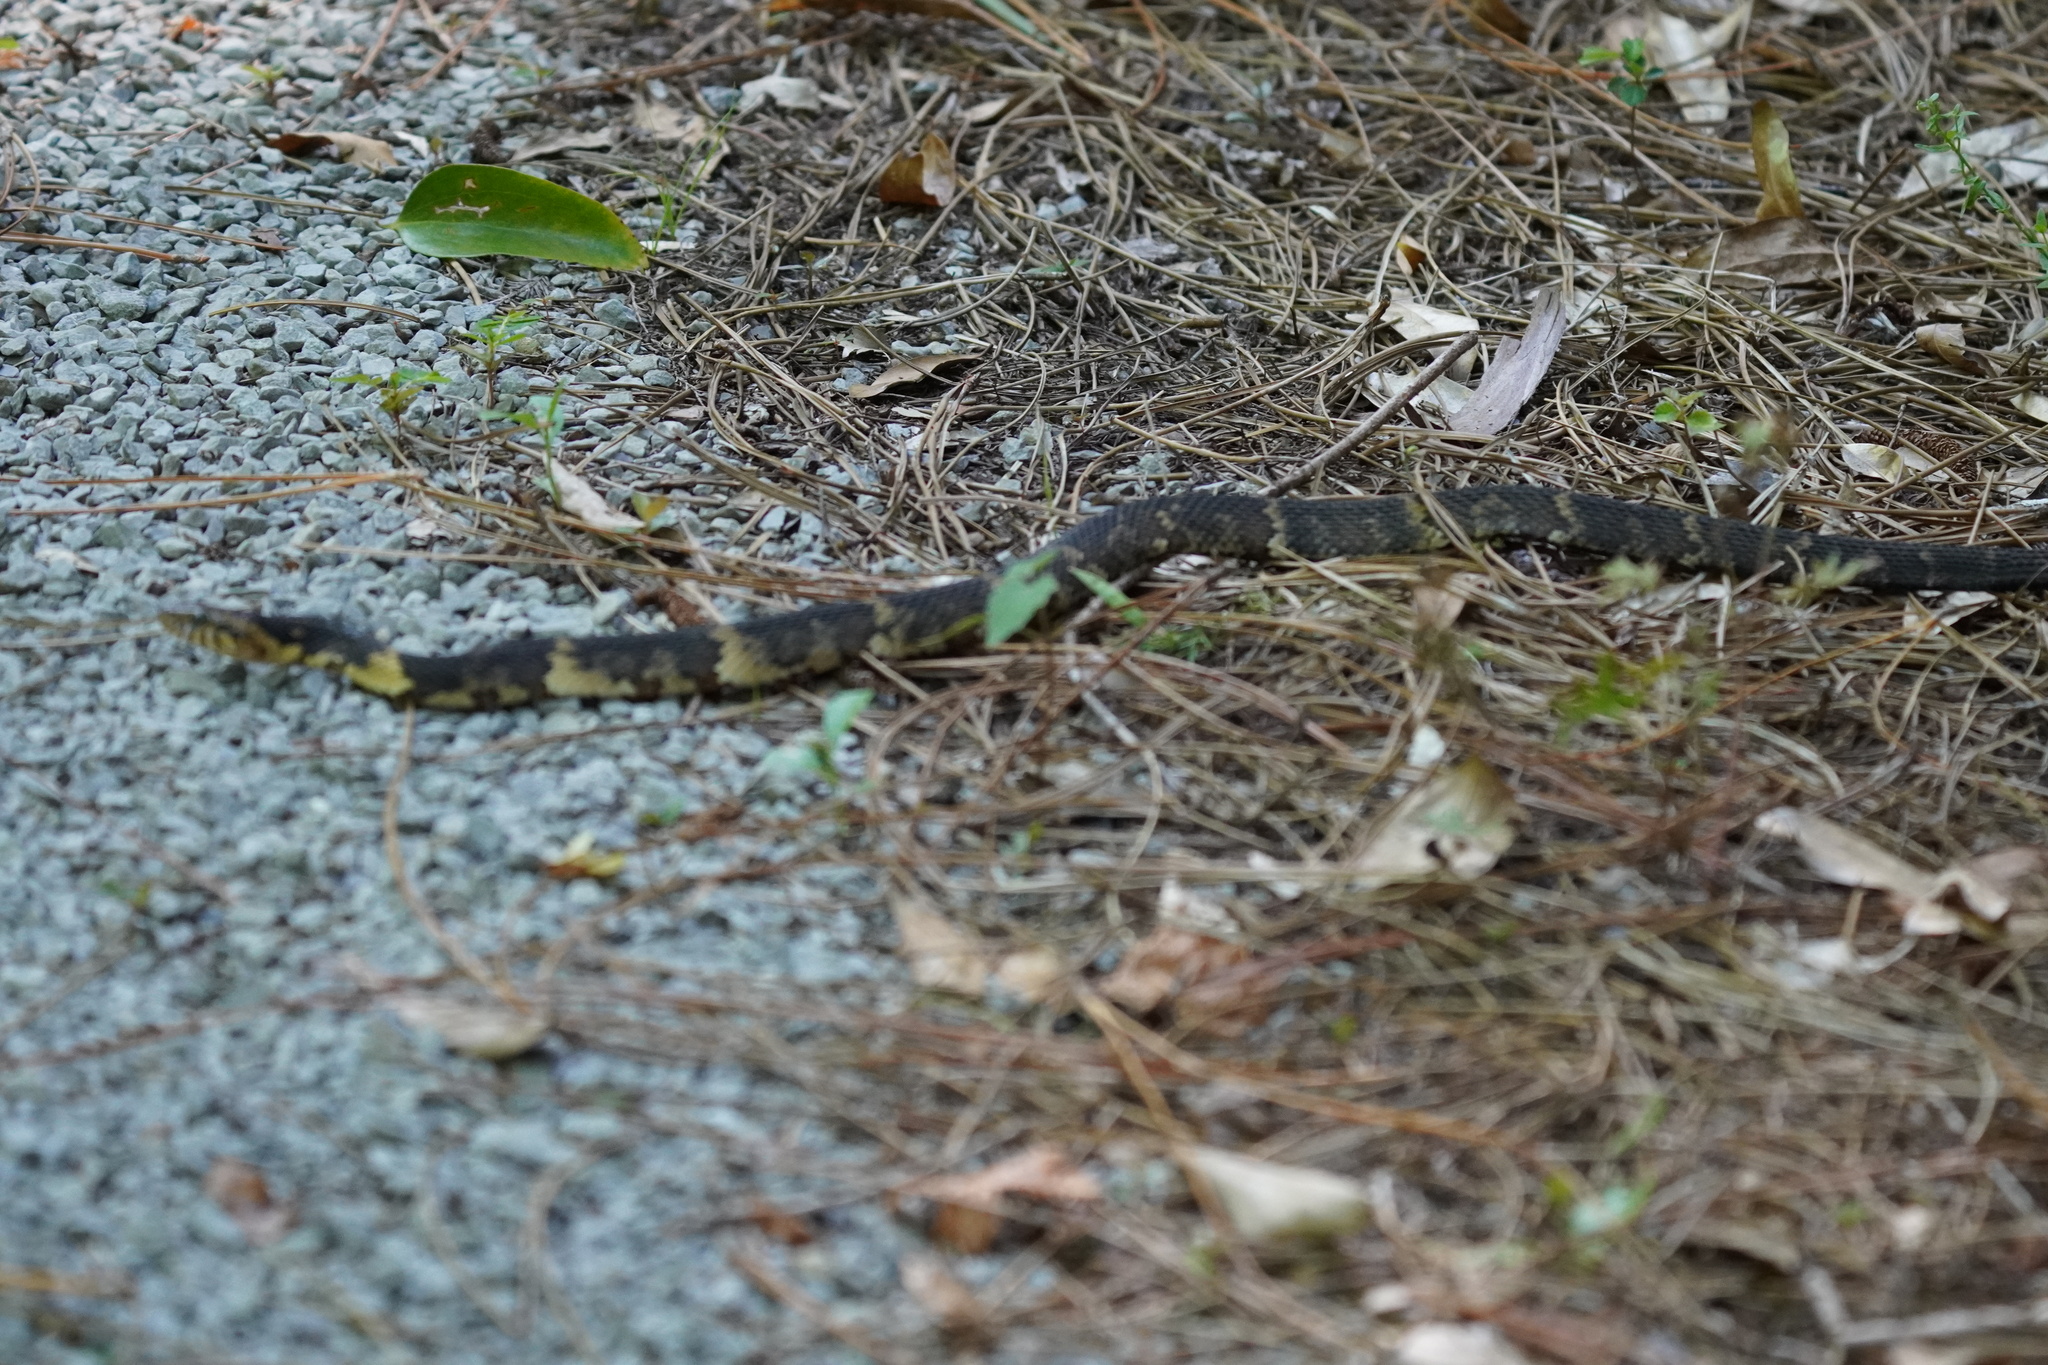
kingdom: Animalia
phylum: Chordata
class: Squamata
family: Colubridae
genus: Nerodia
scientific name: Nerodia fasciata
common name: Southern water snake
